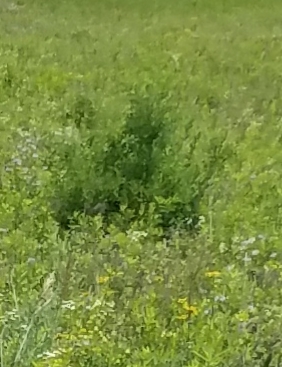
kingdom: Plantae
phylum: Tracheophyta
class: Pinopsida
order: Pinales
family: Cupressaceae
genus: Juniperus
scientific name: Juniperus virginiana
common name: Red juniper
